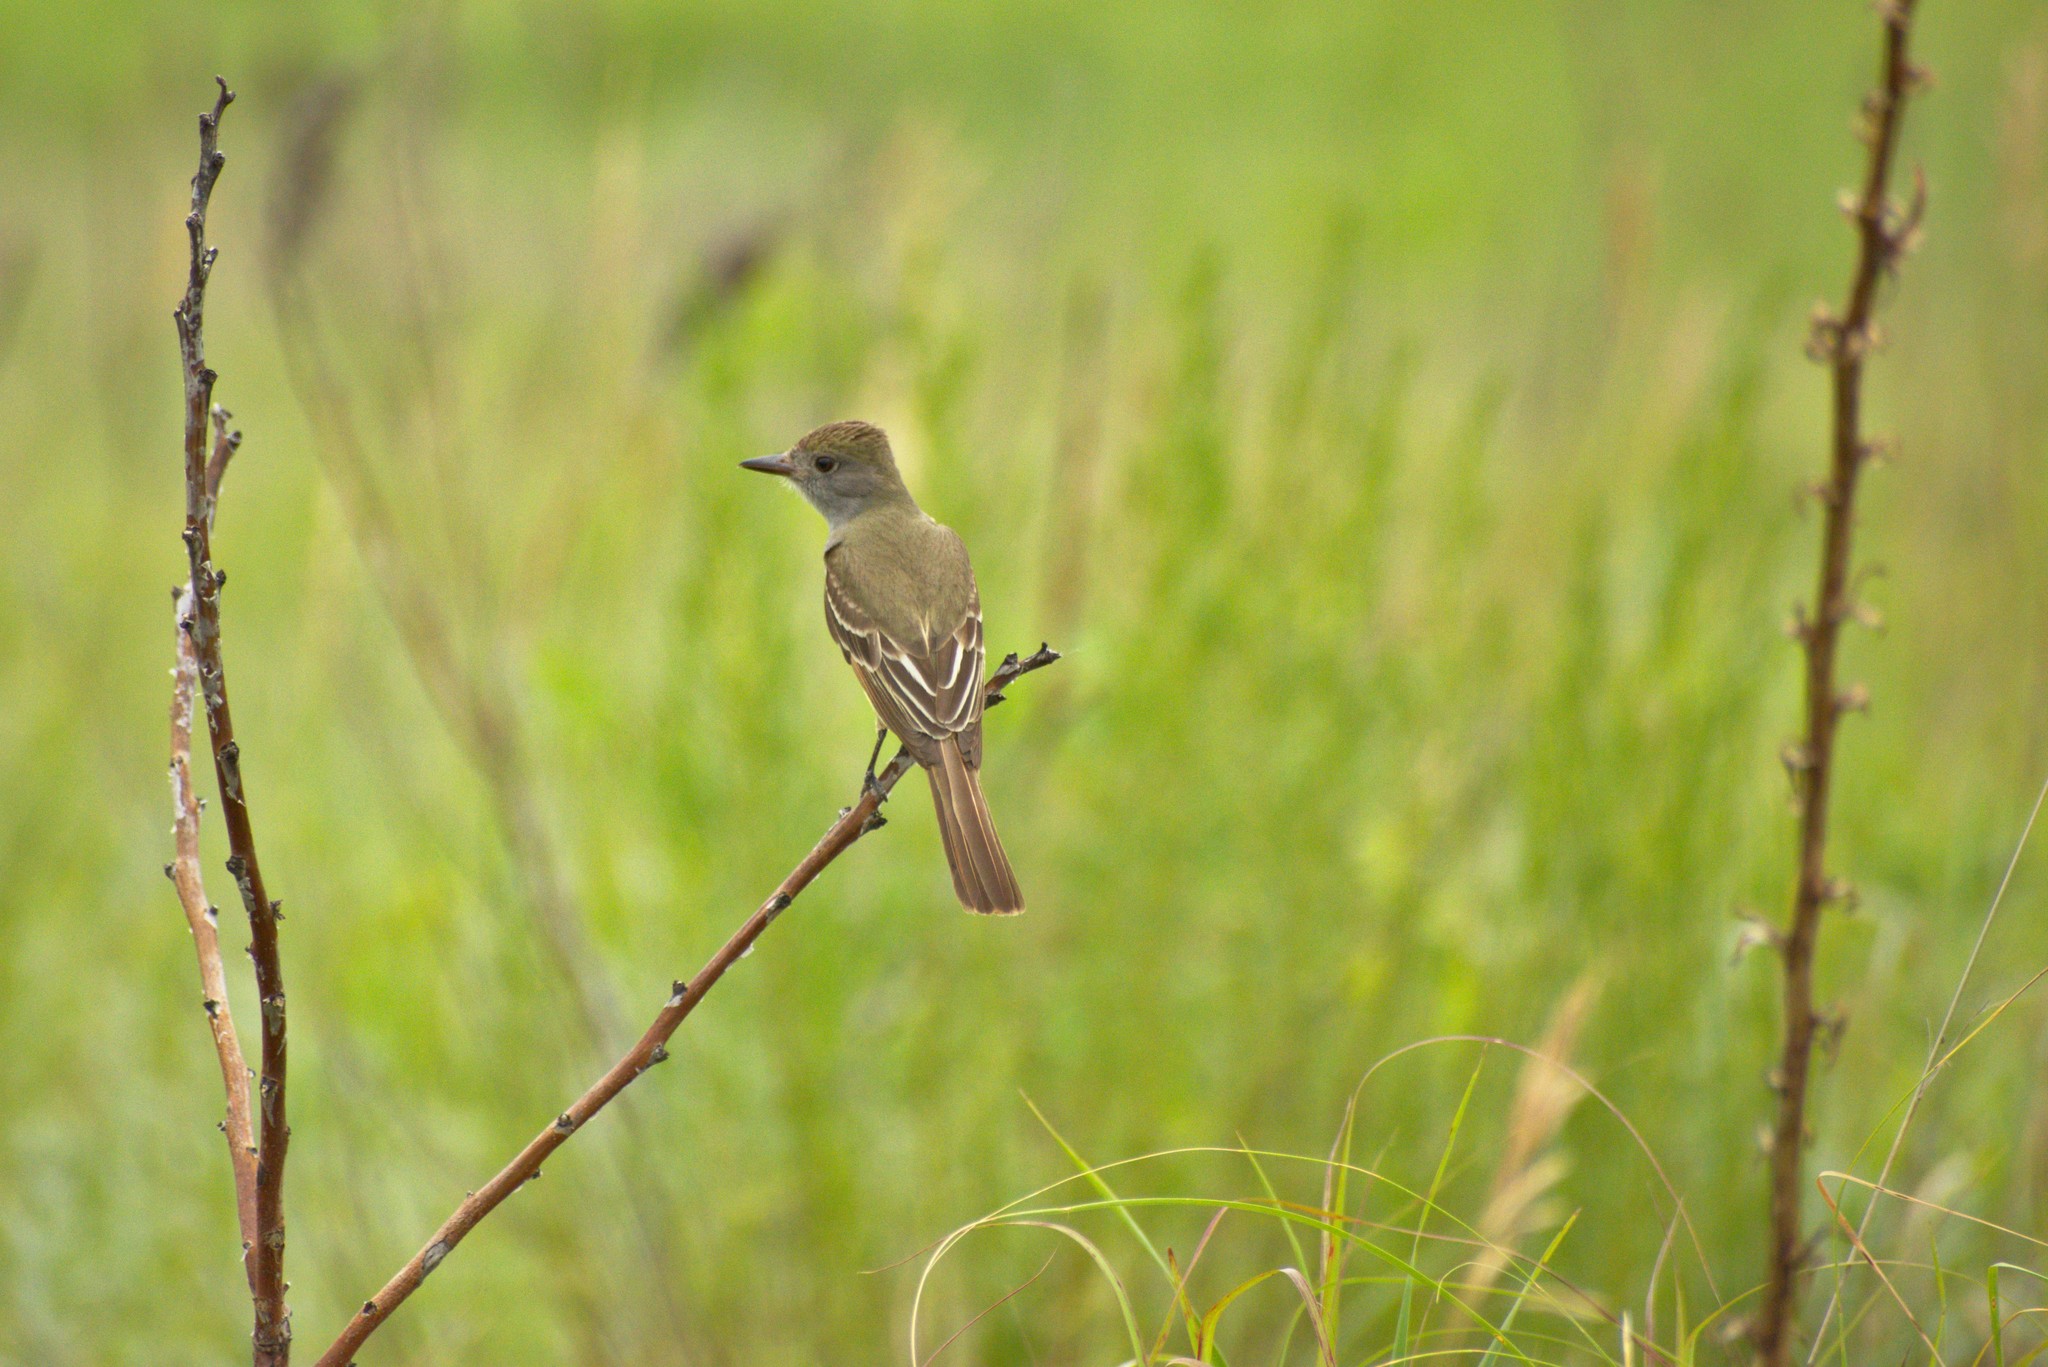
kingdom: Animalia
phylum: Chordata
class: Aves
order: Passeriformes
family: Tyrannidae
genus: Myiarchus
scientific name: Myiarchus crinitus
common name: Great crested flycatcher
